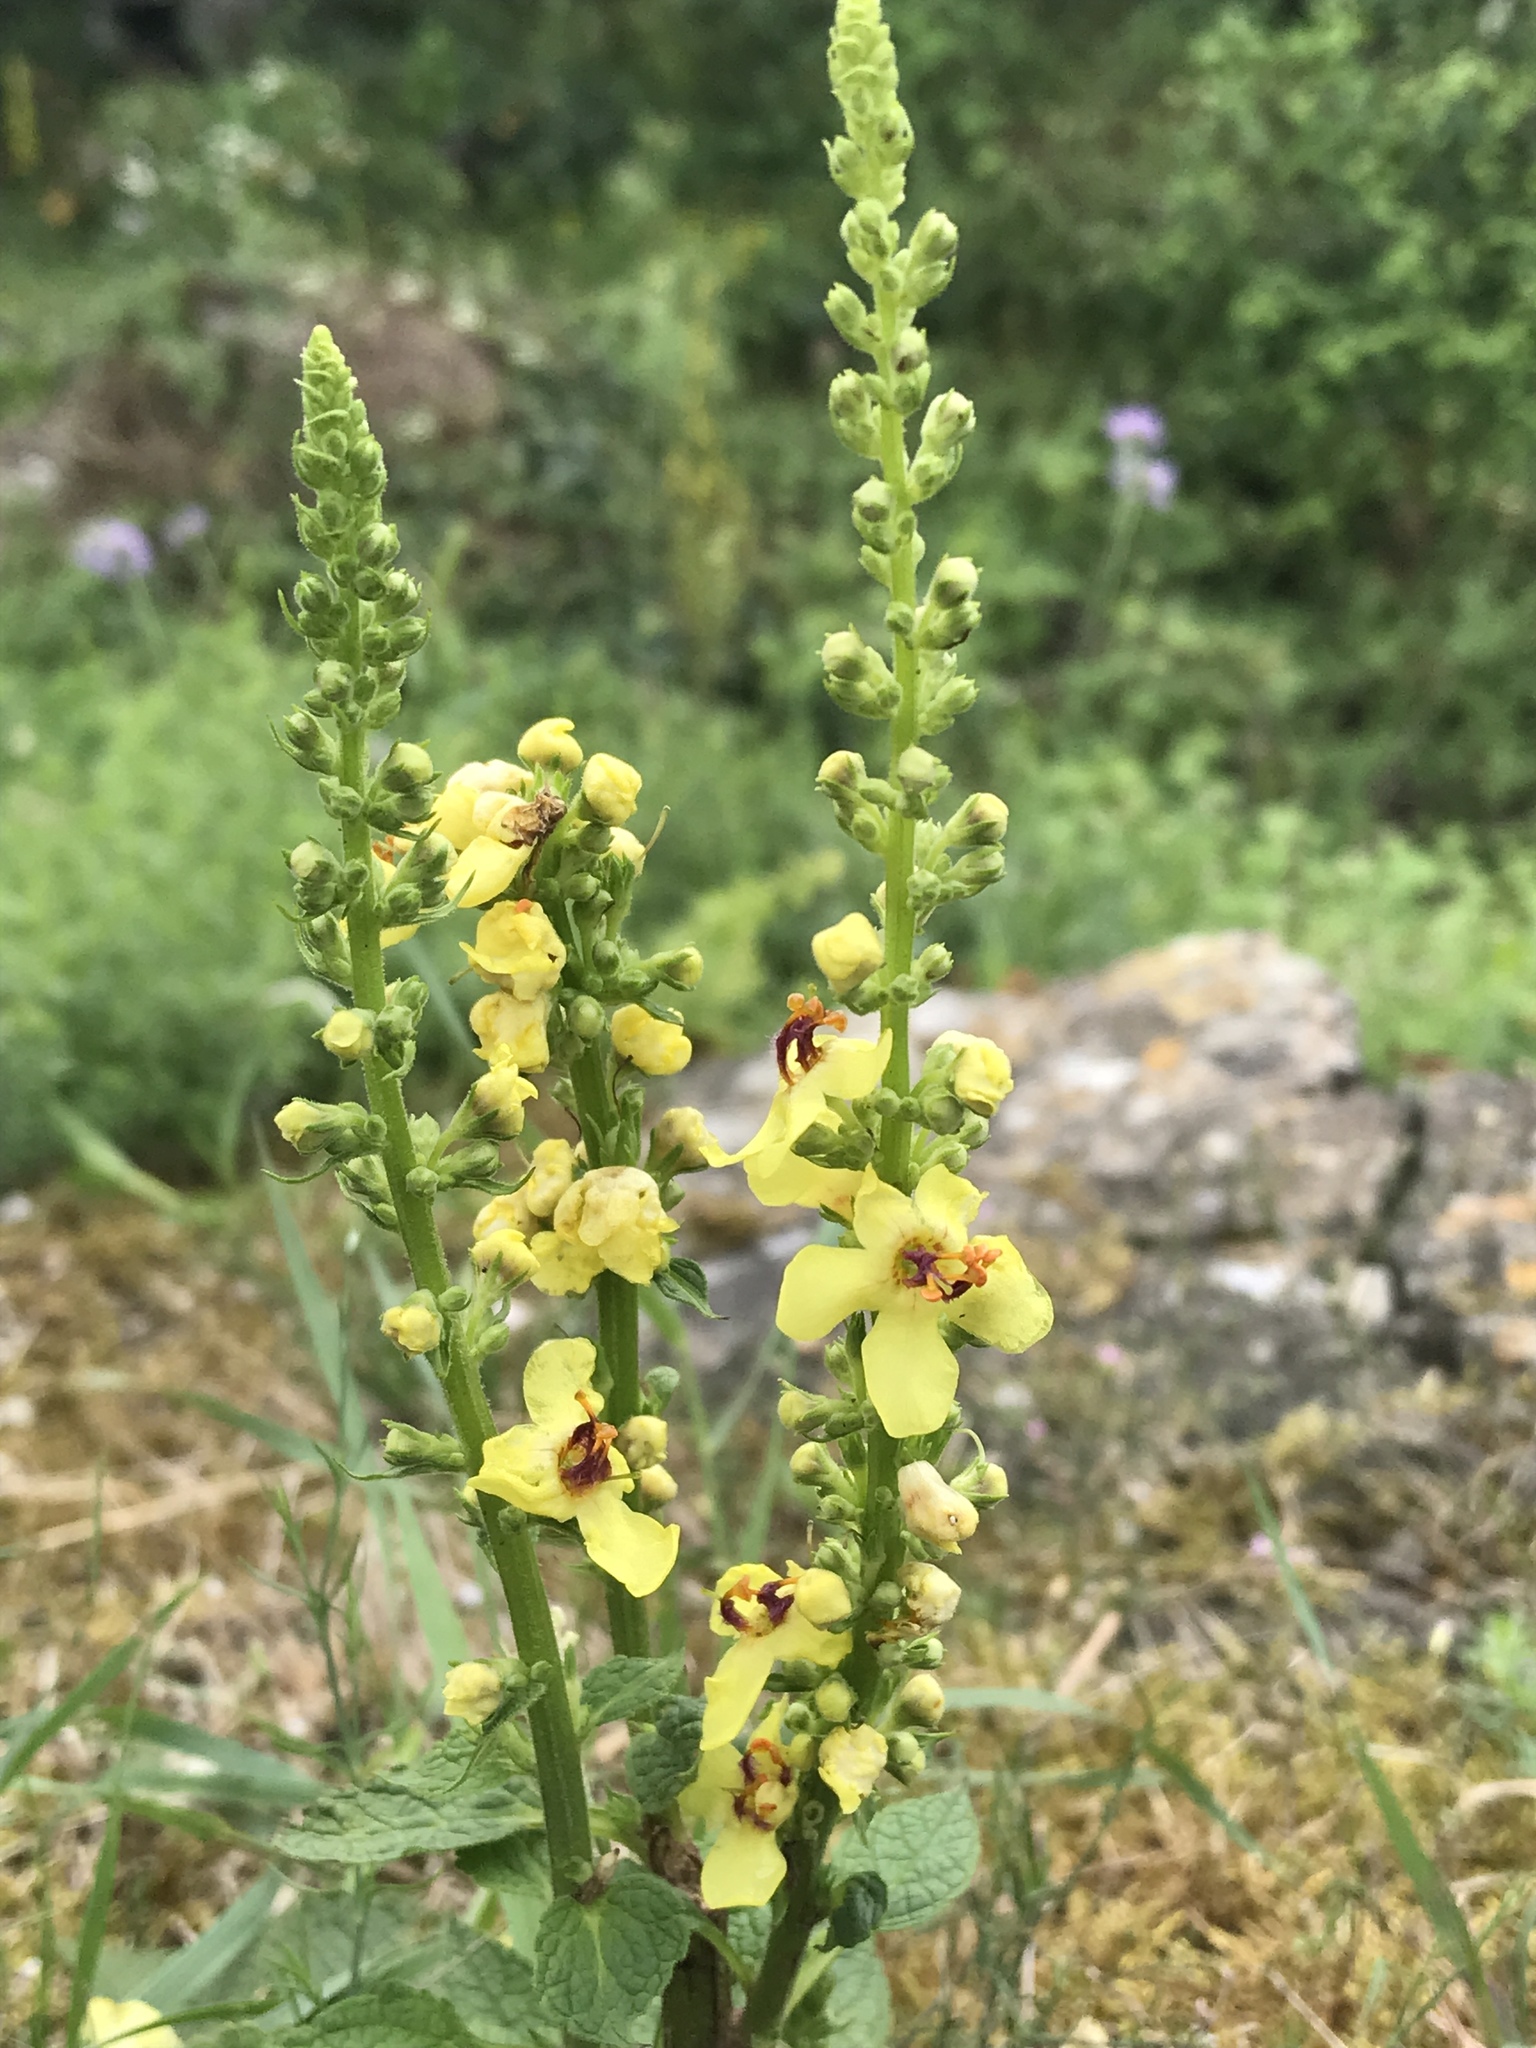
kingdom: Plantae
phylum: Tracheophyta
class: Magnoliopsida
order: Lamiales
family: Scrophulariaceae
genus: Verbascum
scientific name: Verbascum nigrum
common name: Dark mullein
